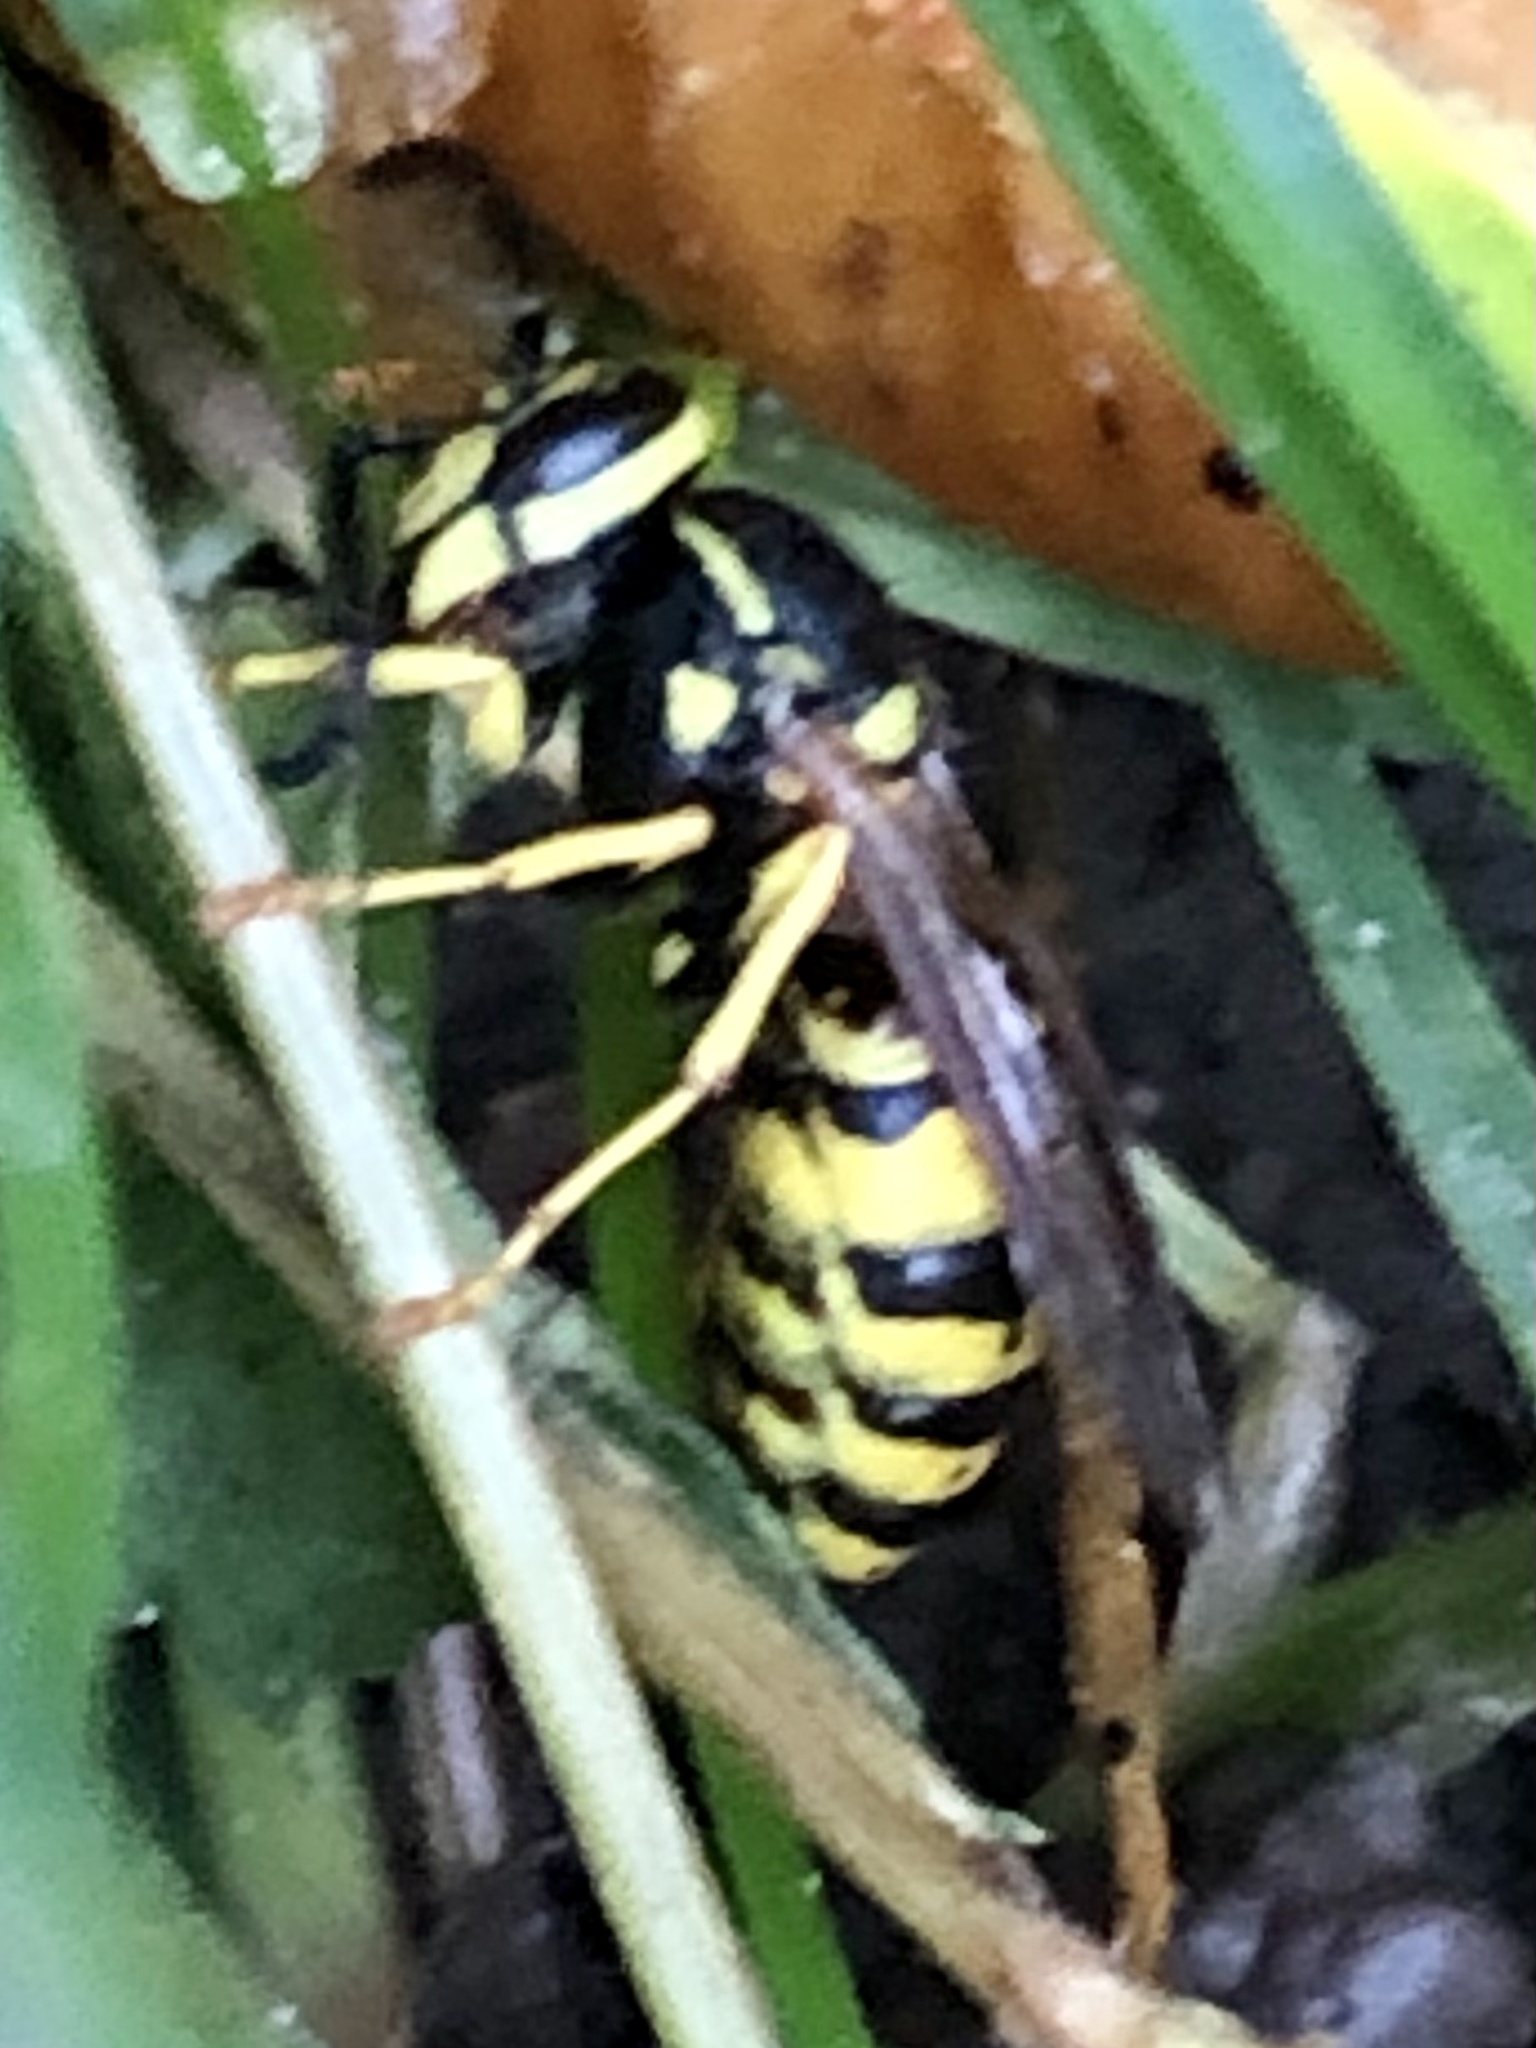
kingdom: Animalia
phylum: Arthropoda
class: Insecta
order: Hymenoptera
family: Vespidae
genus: Vespula
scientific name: Vespula germanica
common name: German wasp
